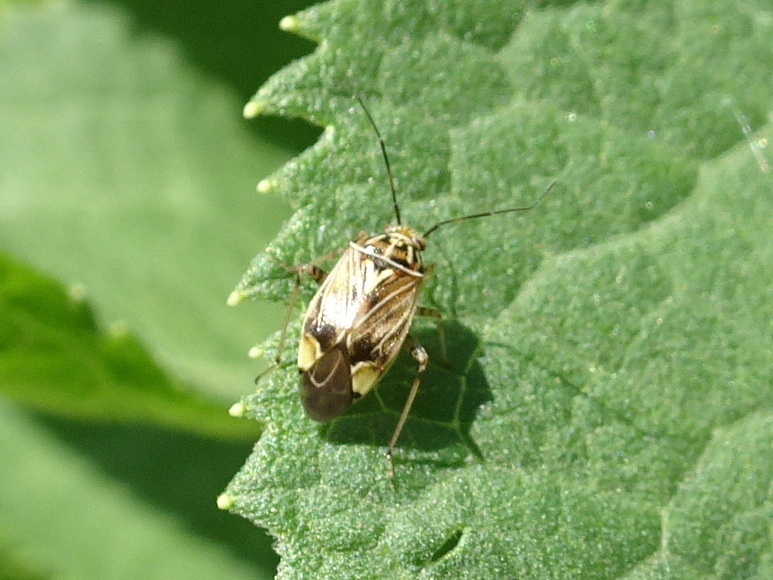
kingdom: Animalia
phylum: Arthropoda
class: Insecta
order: Hemiptera
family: Miridae
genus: Lygus
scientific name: Lygus lineolaris
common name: North american tarnished plant bug
